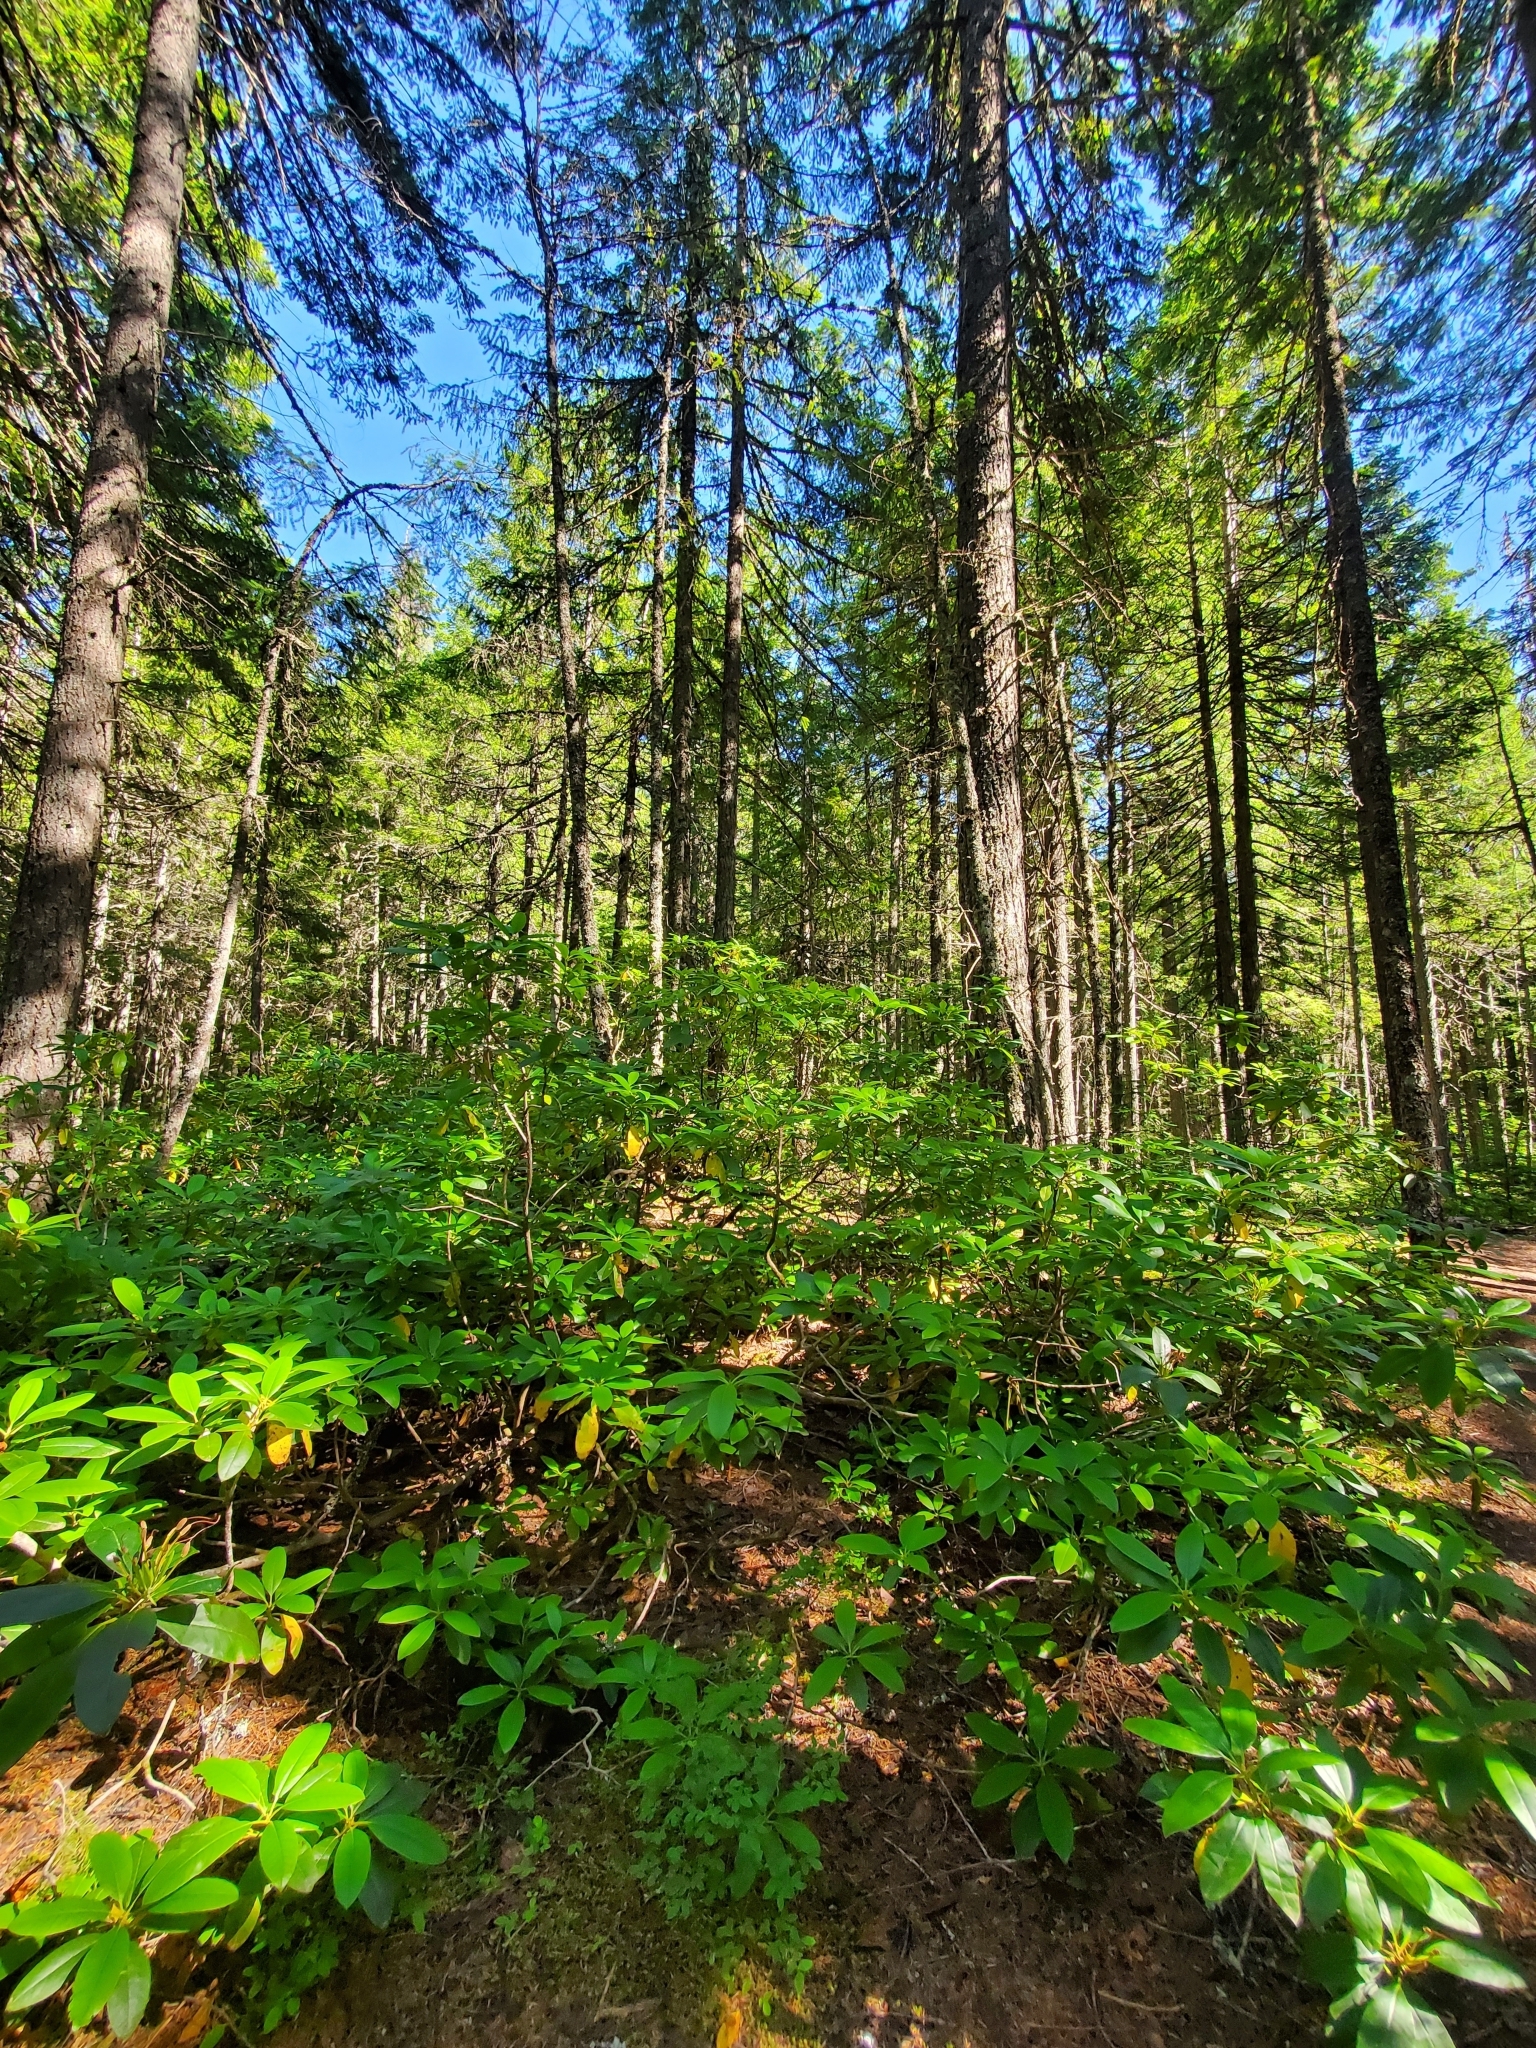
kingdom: Plantae
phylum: Tracheophyta
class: Magnoliopsida
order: Ericales
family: Ericaceae
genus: Rhododendron
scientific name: Rhododendron macrophyllum
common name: California rose bay
